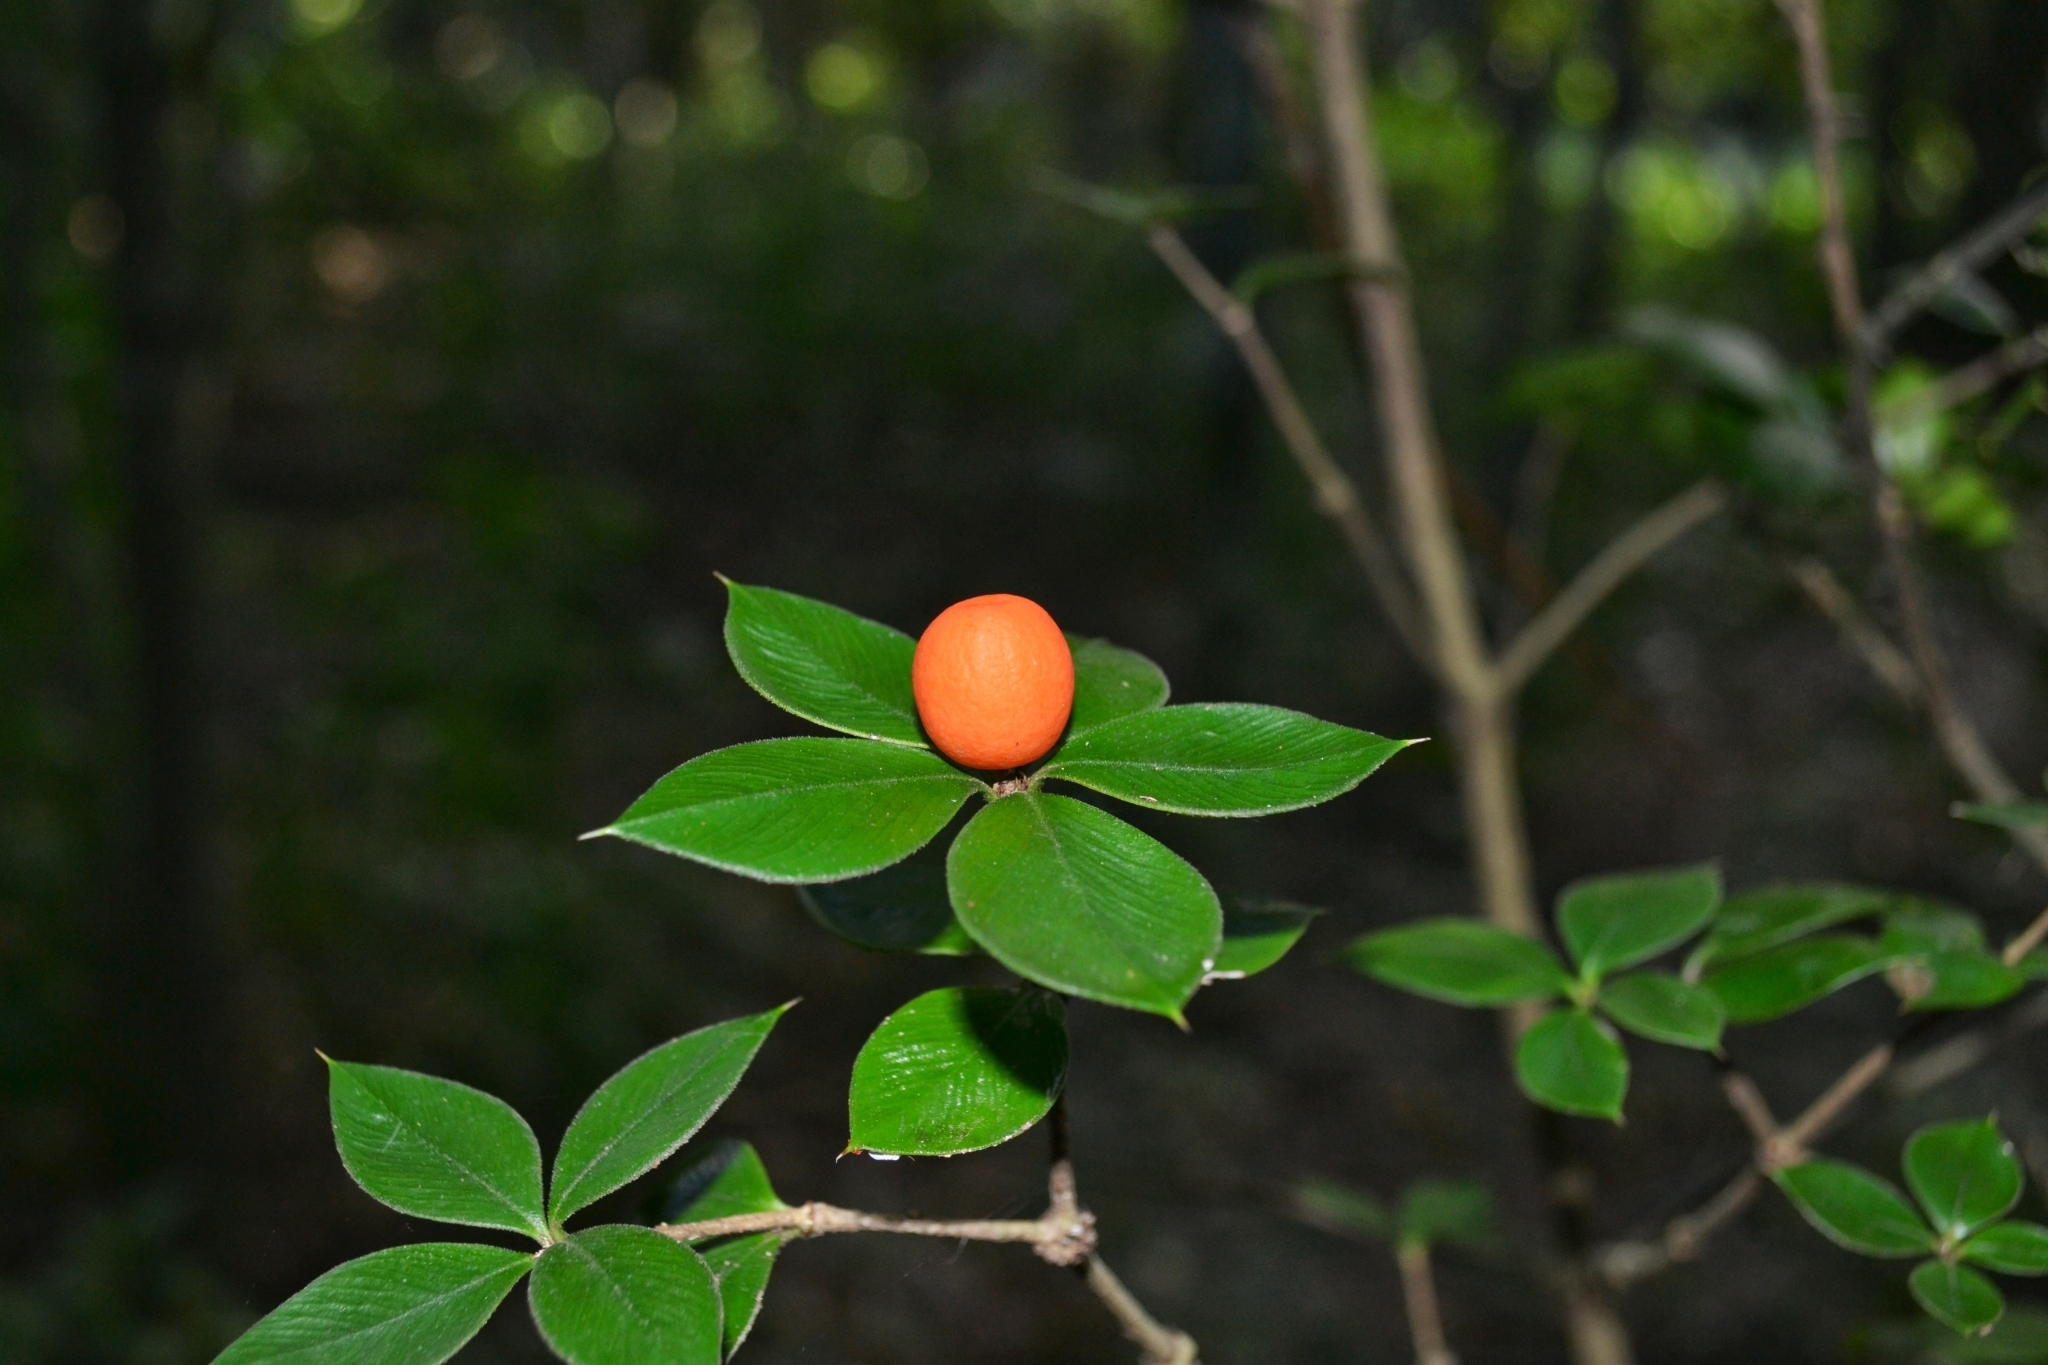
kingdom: Plantae
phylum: Tracheophyta
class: Magnoliopsida
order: Gentianales
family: Apocynaceae
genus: Alyxia
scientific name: Alyxia ruscifolia
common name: Chainfruit
